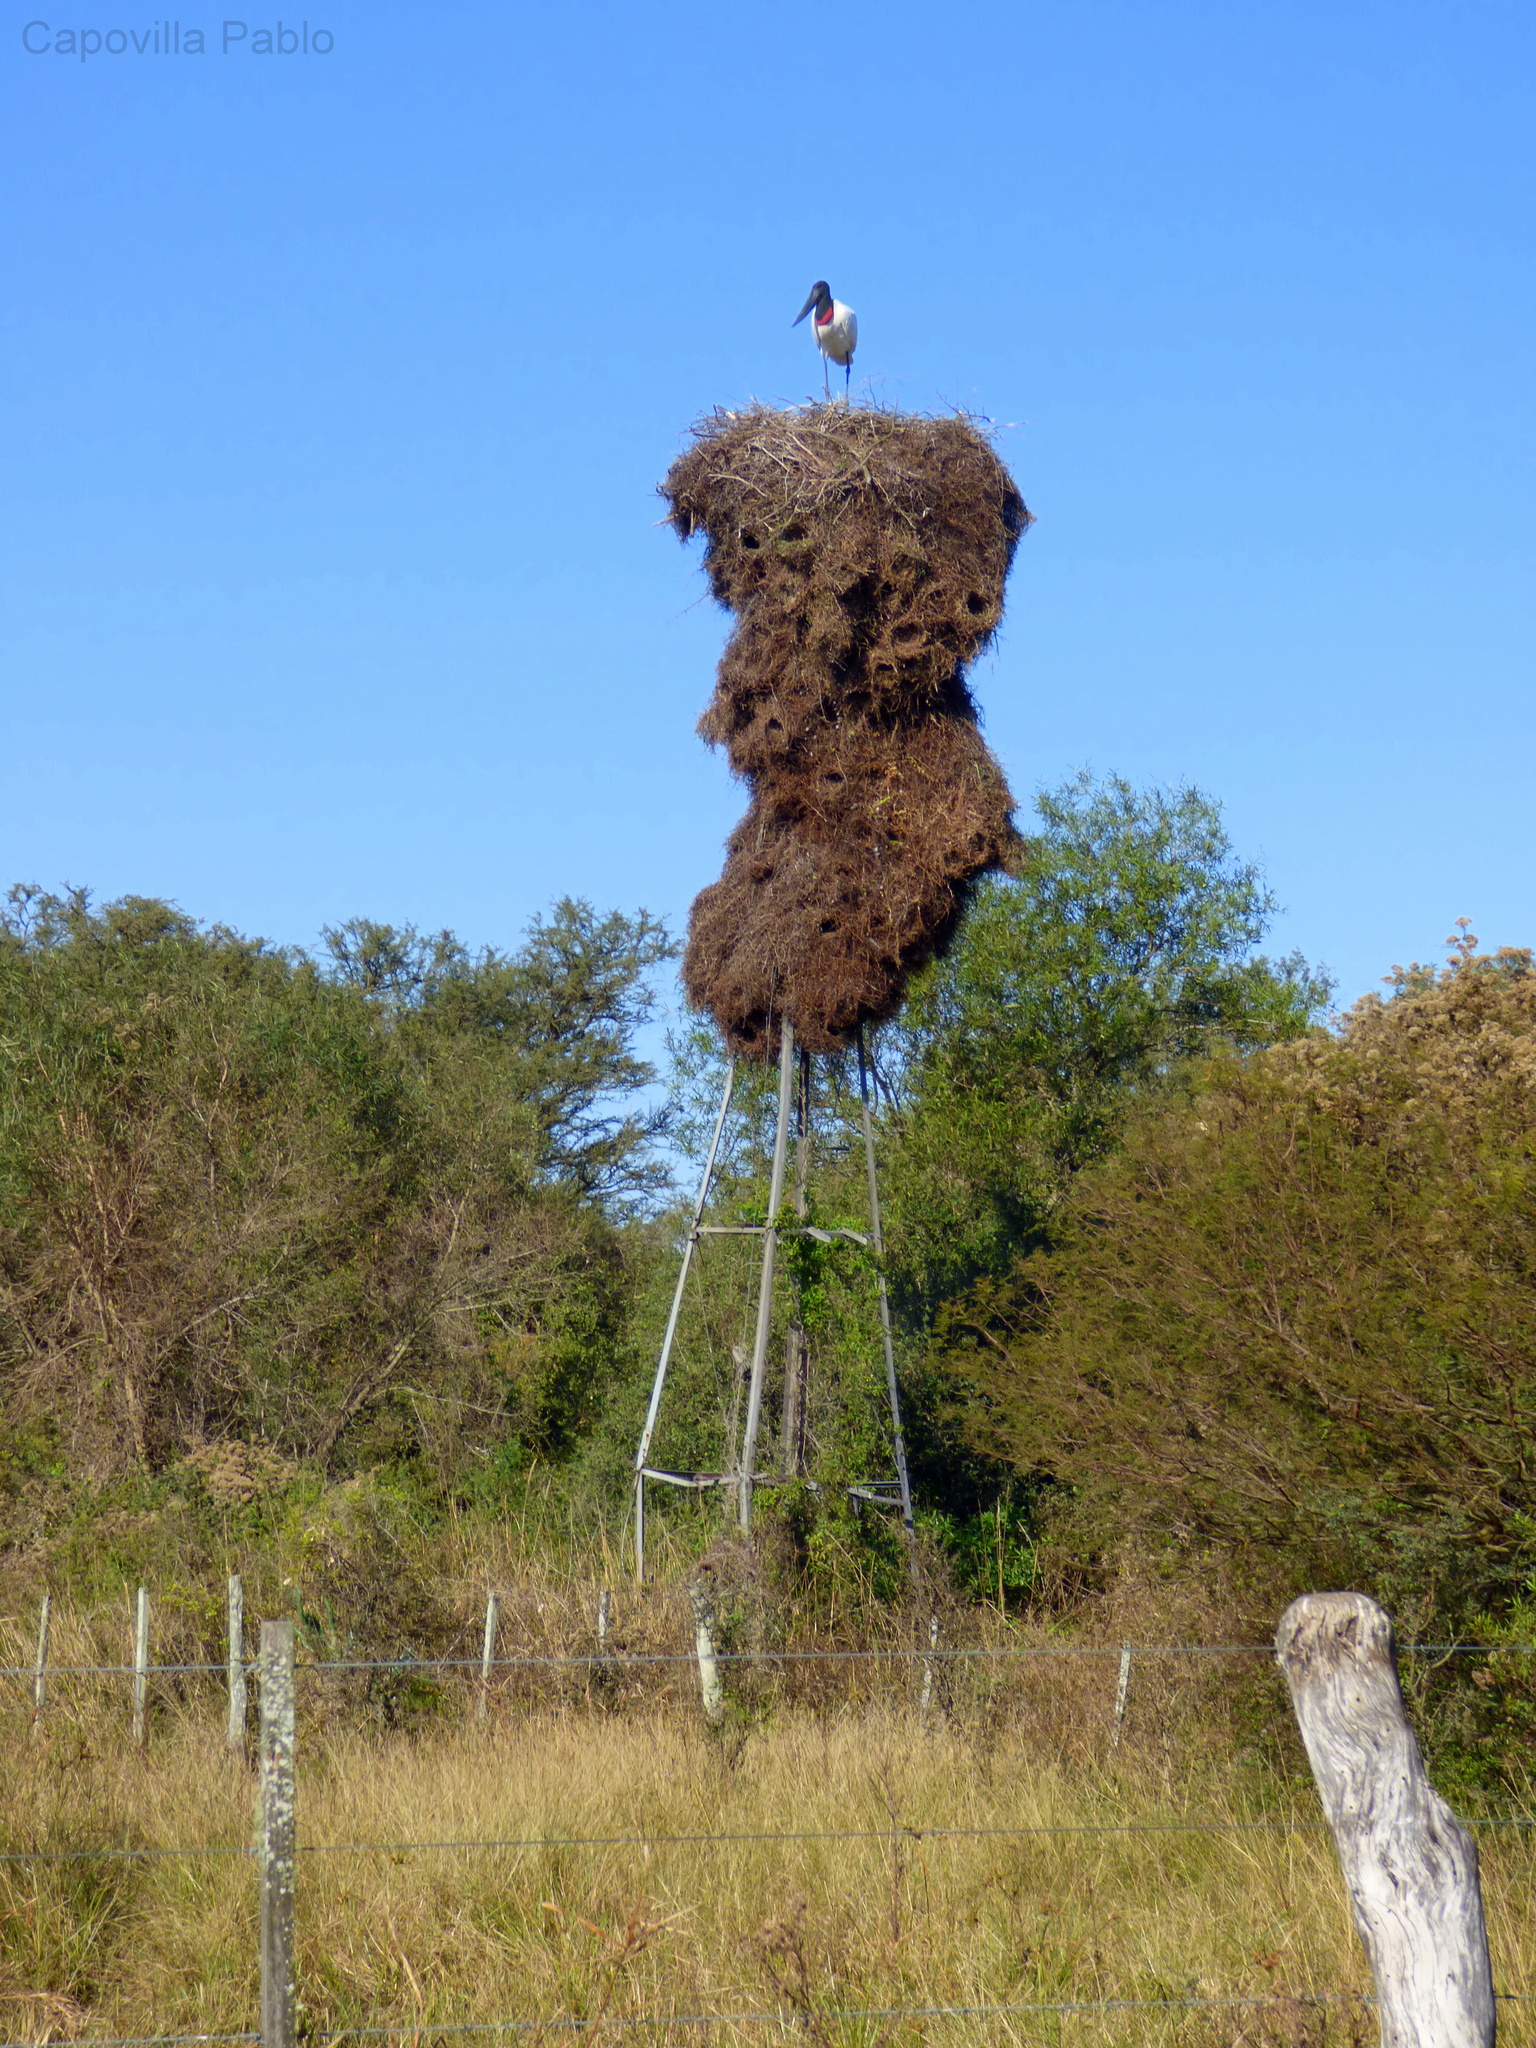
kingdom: Animalia
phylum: Chordata
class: Aves
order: Ciconiiformes
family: Ciconiidae
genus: Jabiru
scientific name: Jabiru mycteria
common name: Jabiru
